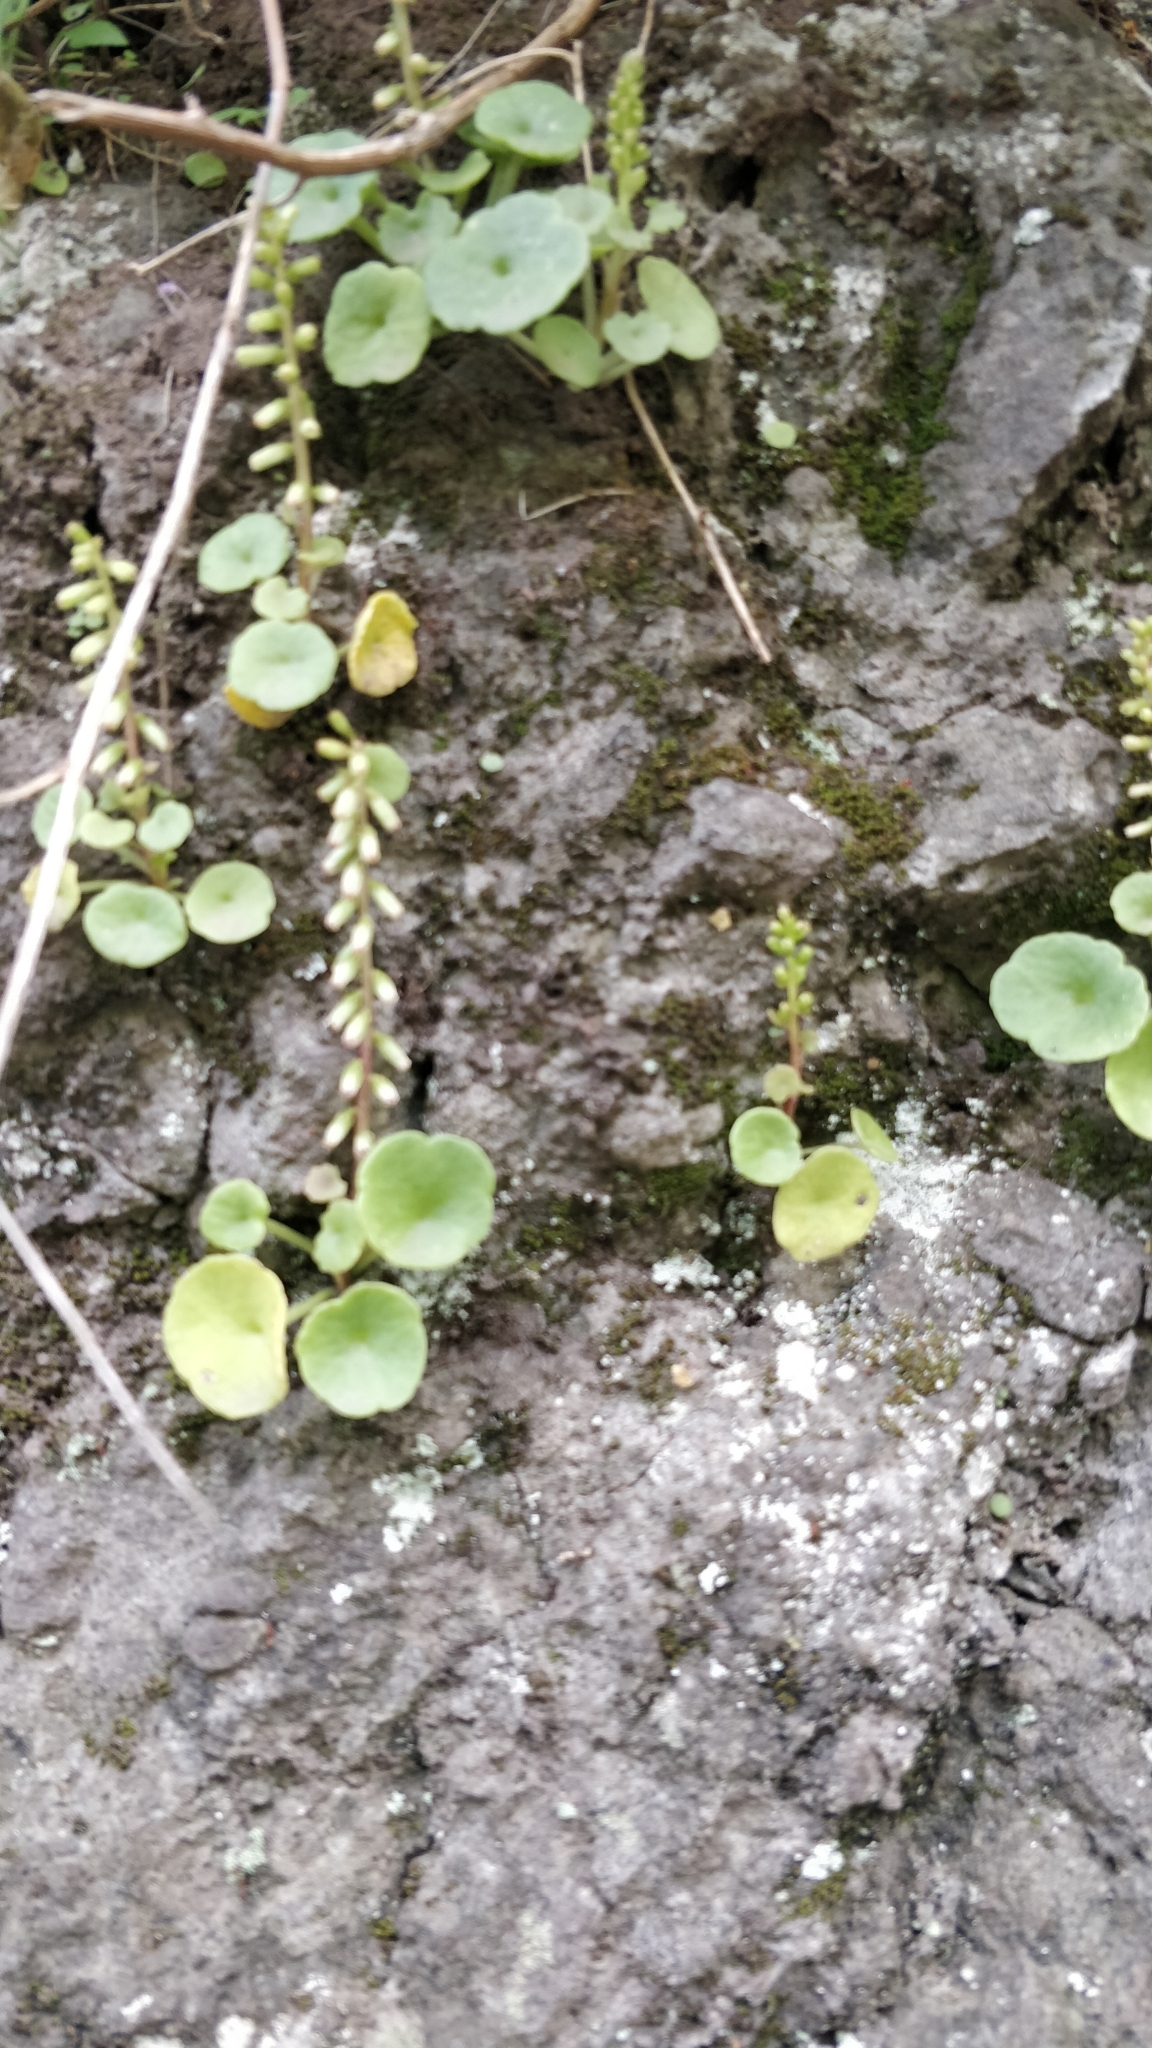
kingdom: Plantae
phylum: Tracheophyta
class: Magnoliopsida
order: Saxifragales
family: Crassulaceae
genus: Umbilicus
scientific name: Umbilicus rupestris
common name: Navelwort
